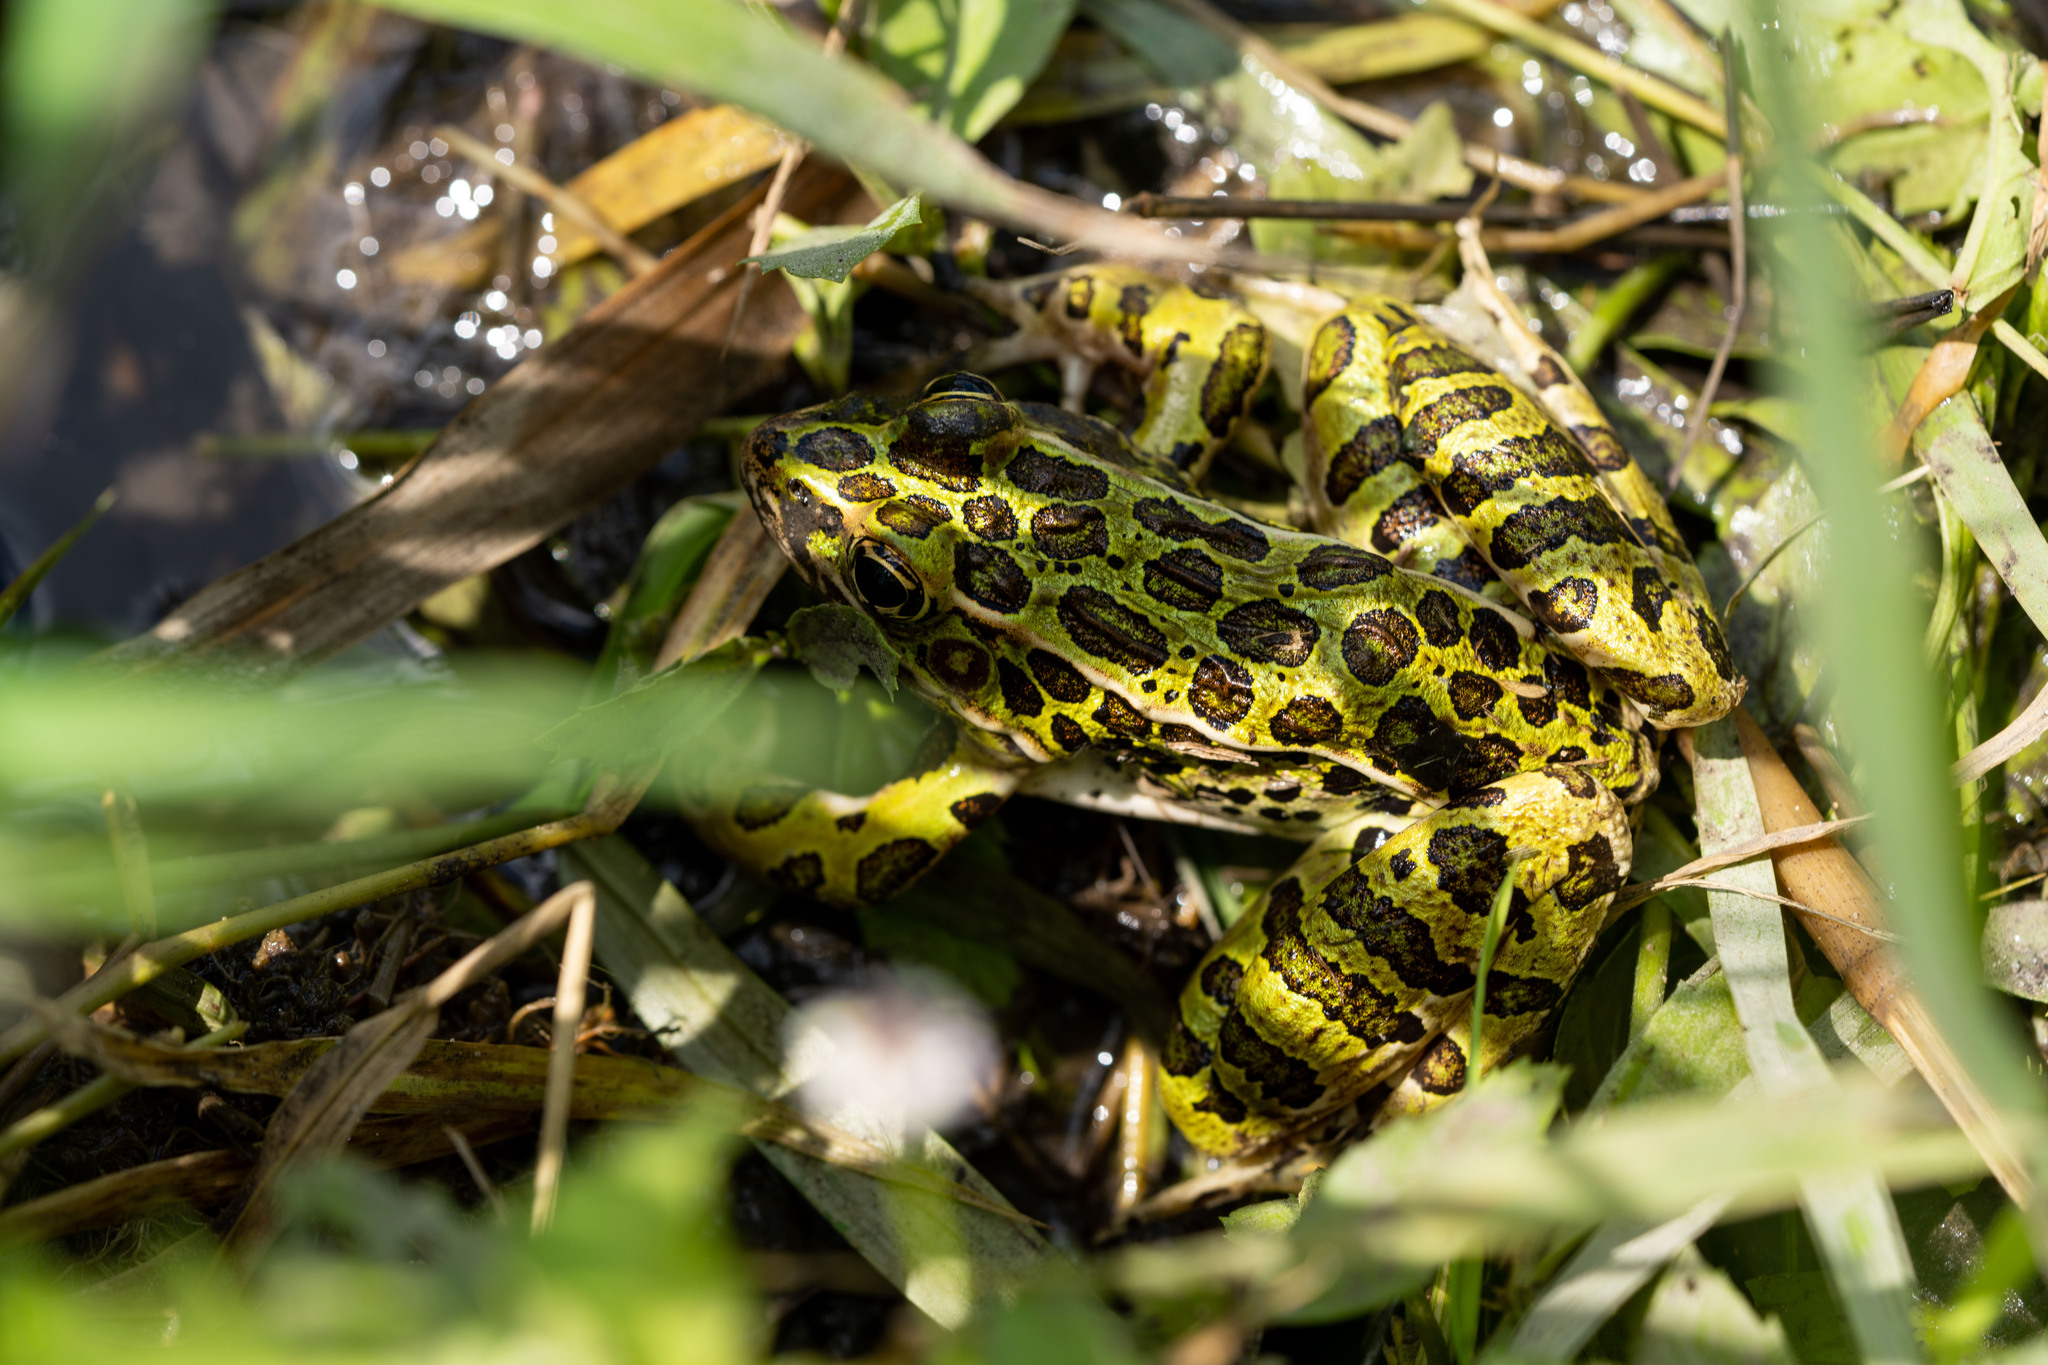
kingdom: Animalia
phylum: Chordata
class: Amphibia
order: Anura
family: Ranidae
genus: Lithobates
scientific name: Lithobates pipiens
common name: Northern leopard frog
